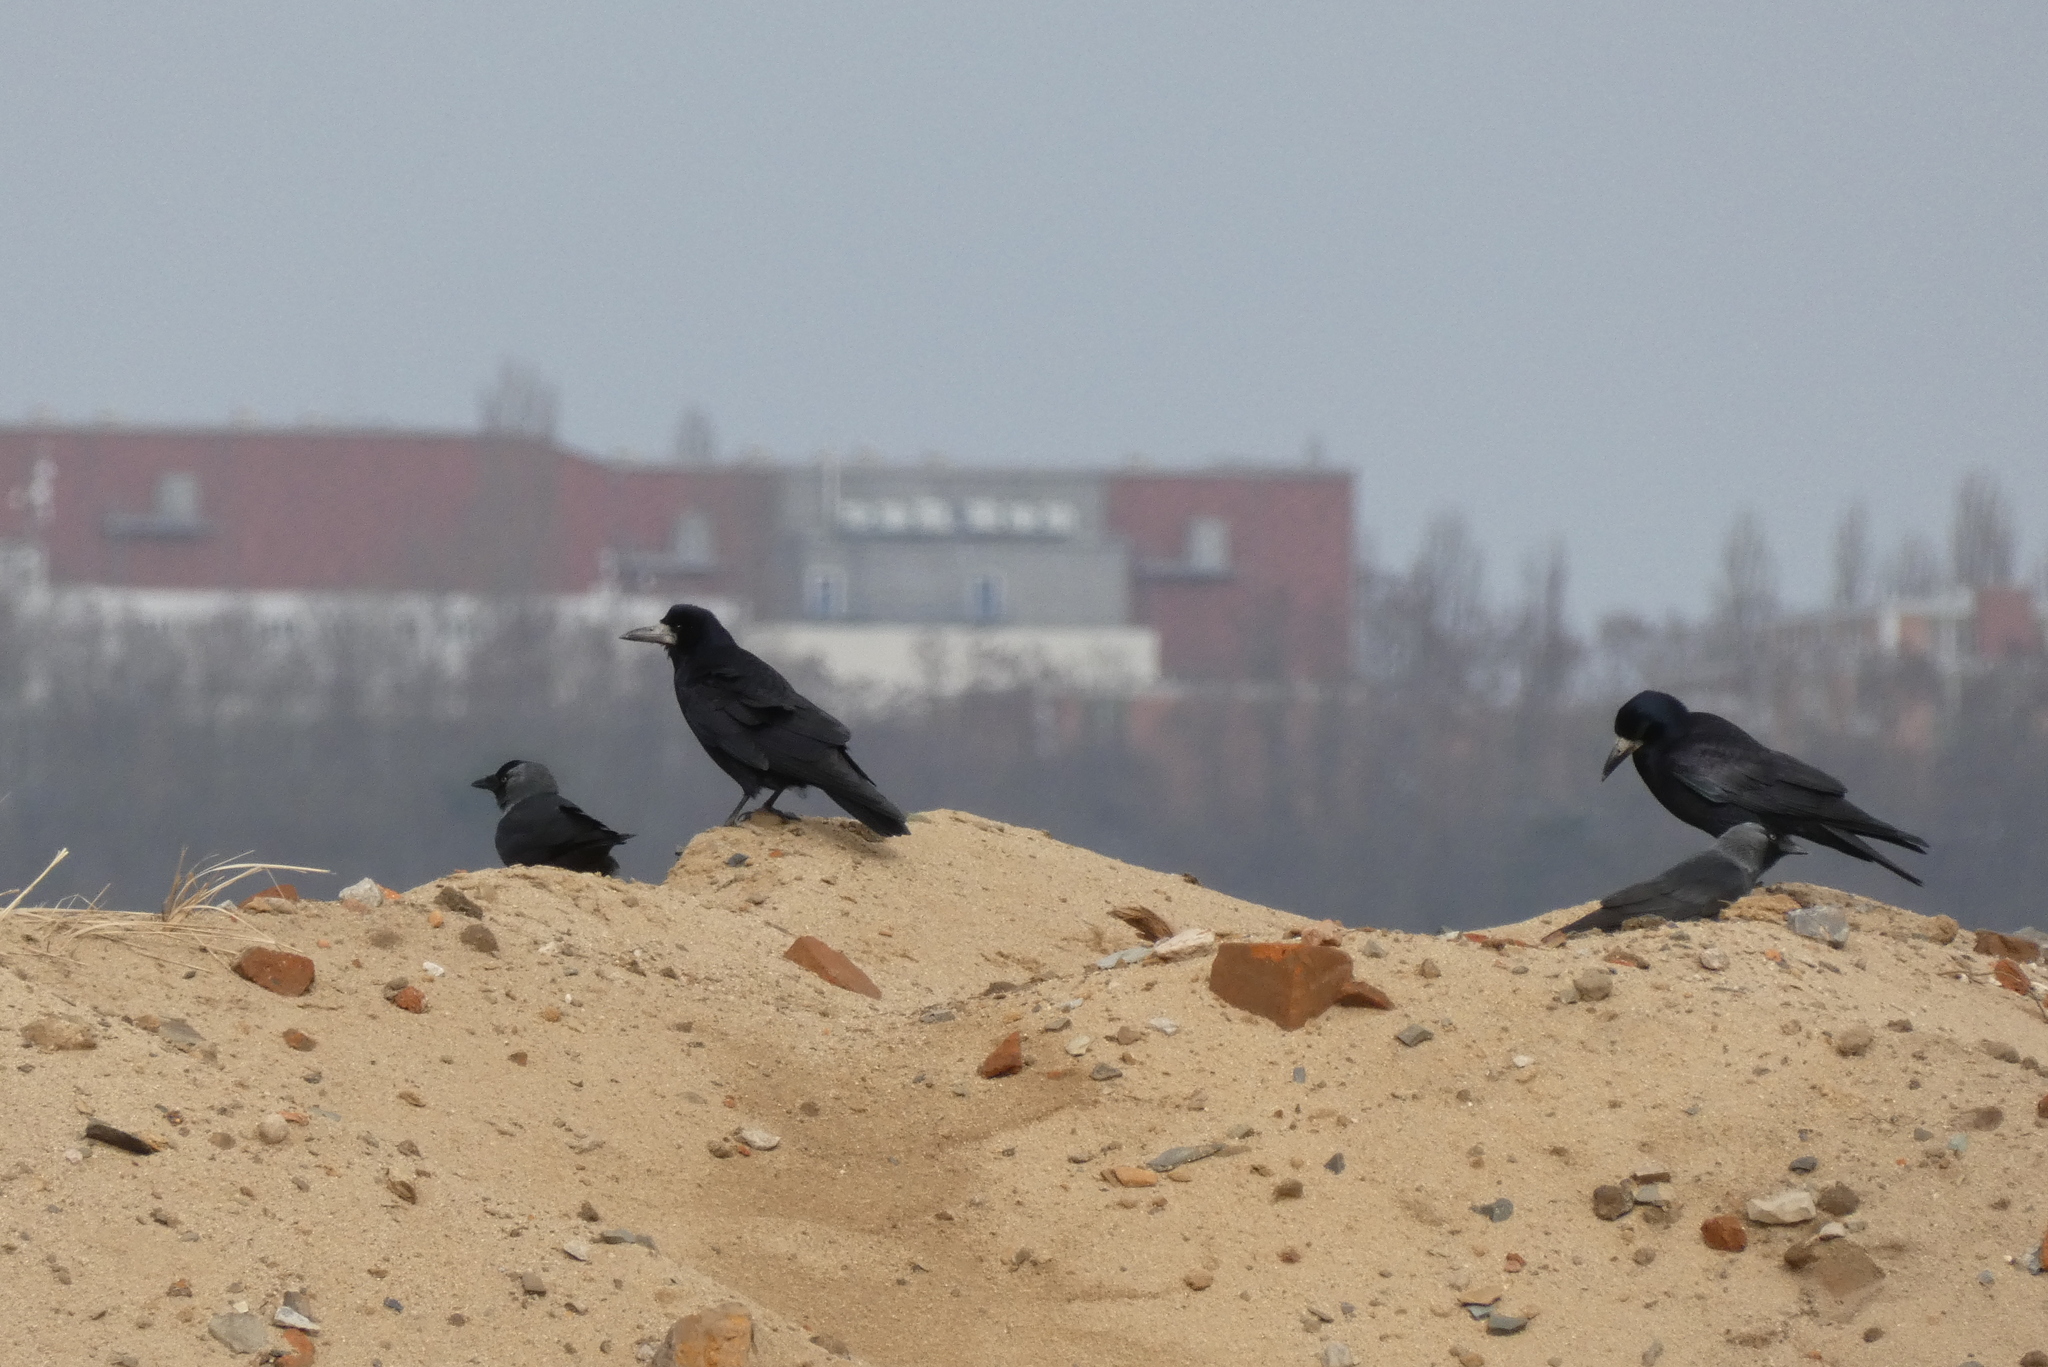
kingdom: Animalia
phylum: Chordata
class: Aves
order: Passeriformes
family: Corvidae
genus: Corvus
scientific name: Corvus frugilegus
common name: Rook
